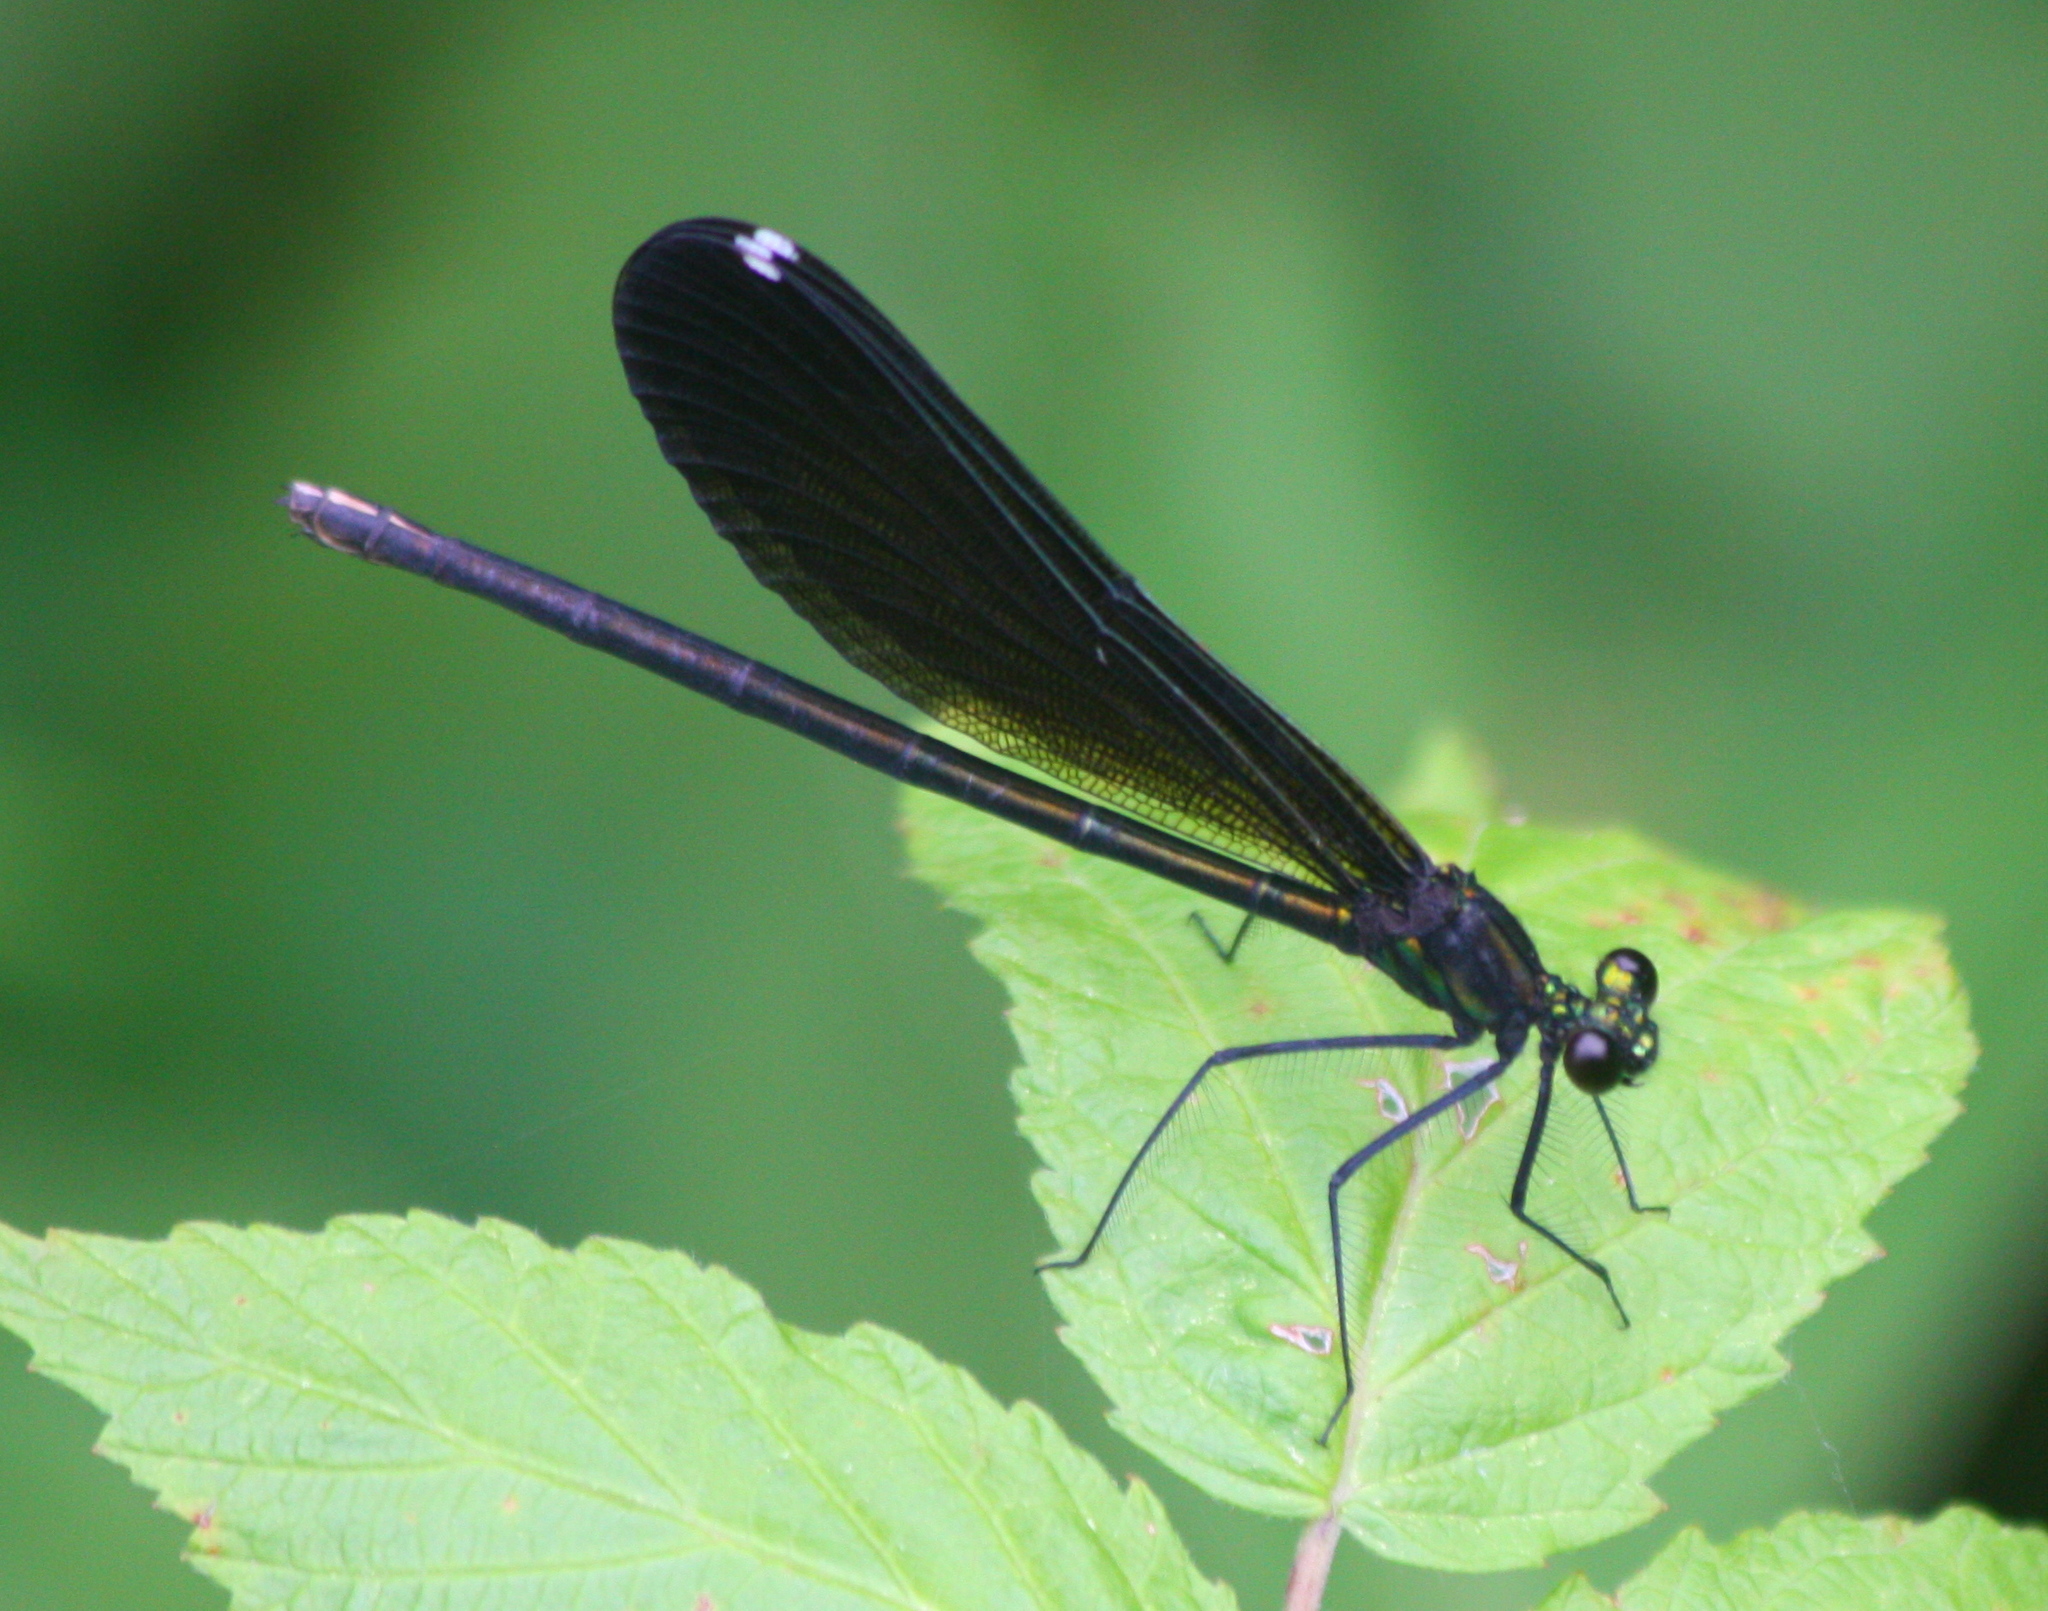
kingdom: Animalia
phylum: Arthropoda
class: Insecta
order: Odonata
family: Calopterygidae
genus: Calopteryx
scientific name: Calopteryx maculata
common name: Ebony jewelwing
